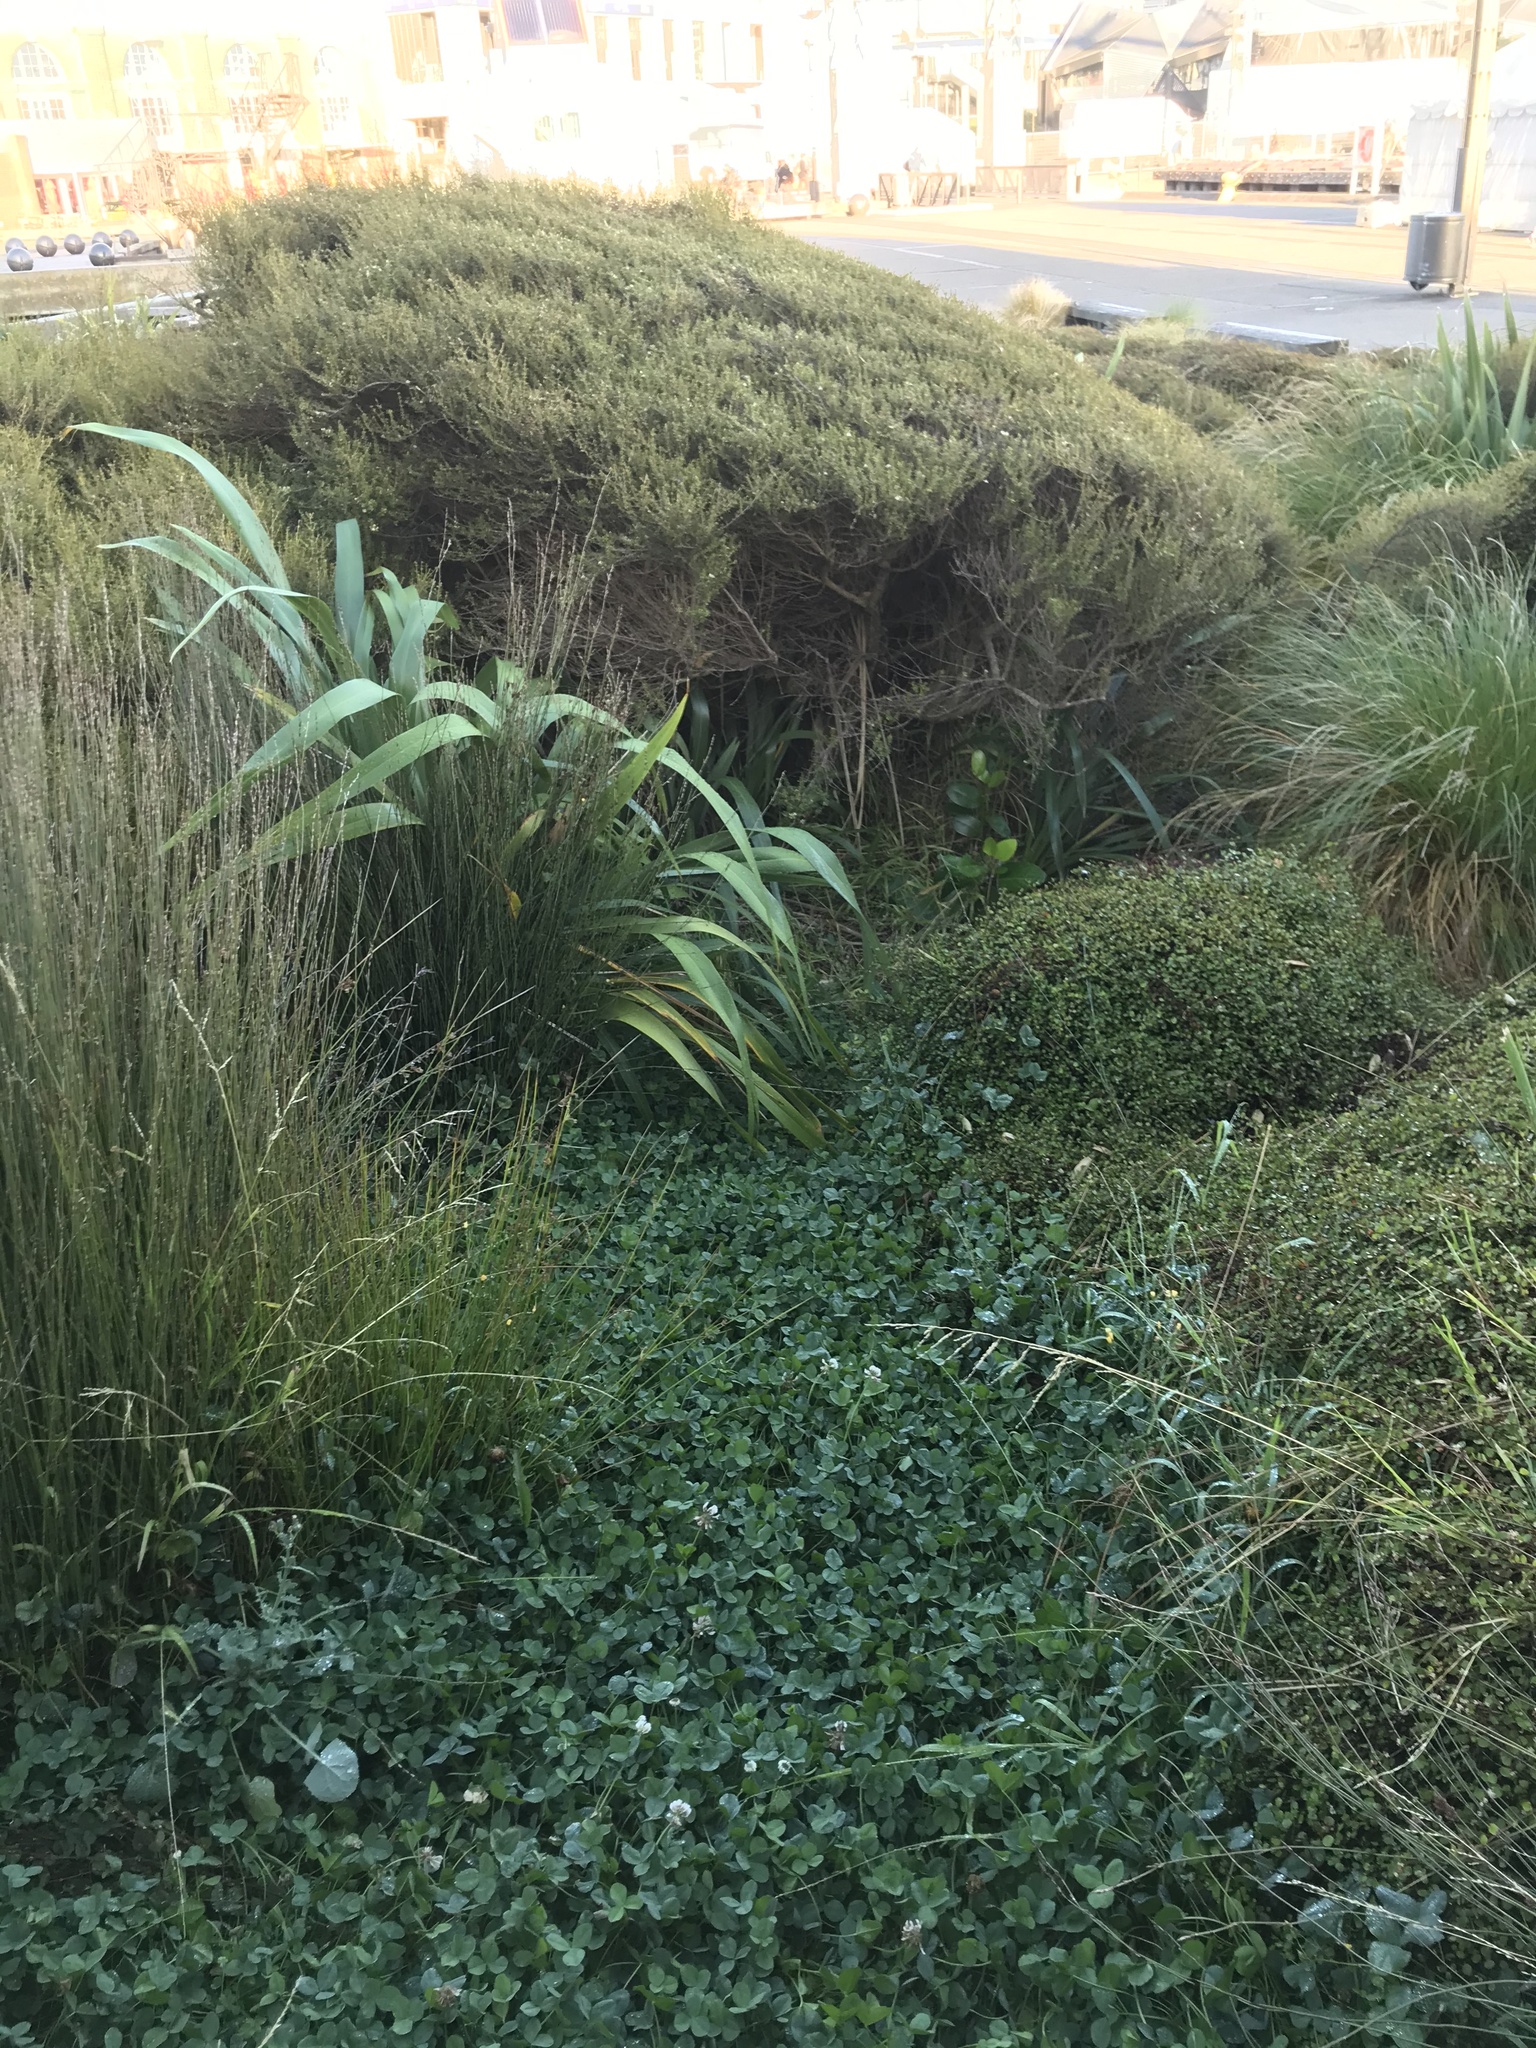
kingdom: Plantae
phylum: Tracheophyta
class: Magnoliopsida
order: Fabales
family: Fabaceae
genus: Trifolium
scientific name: Trifolium repens
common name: White clover
